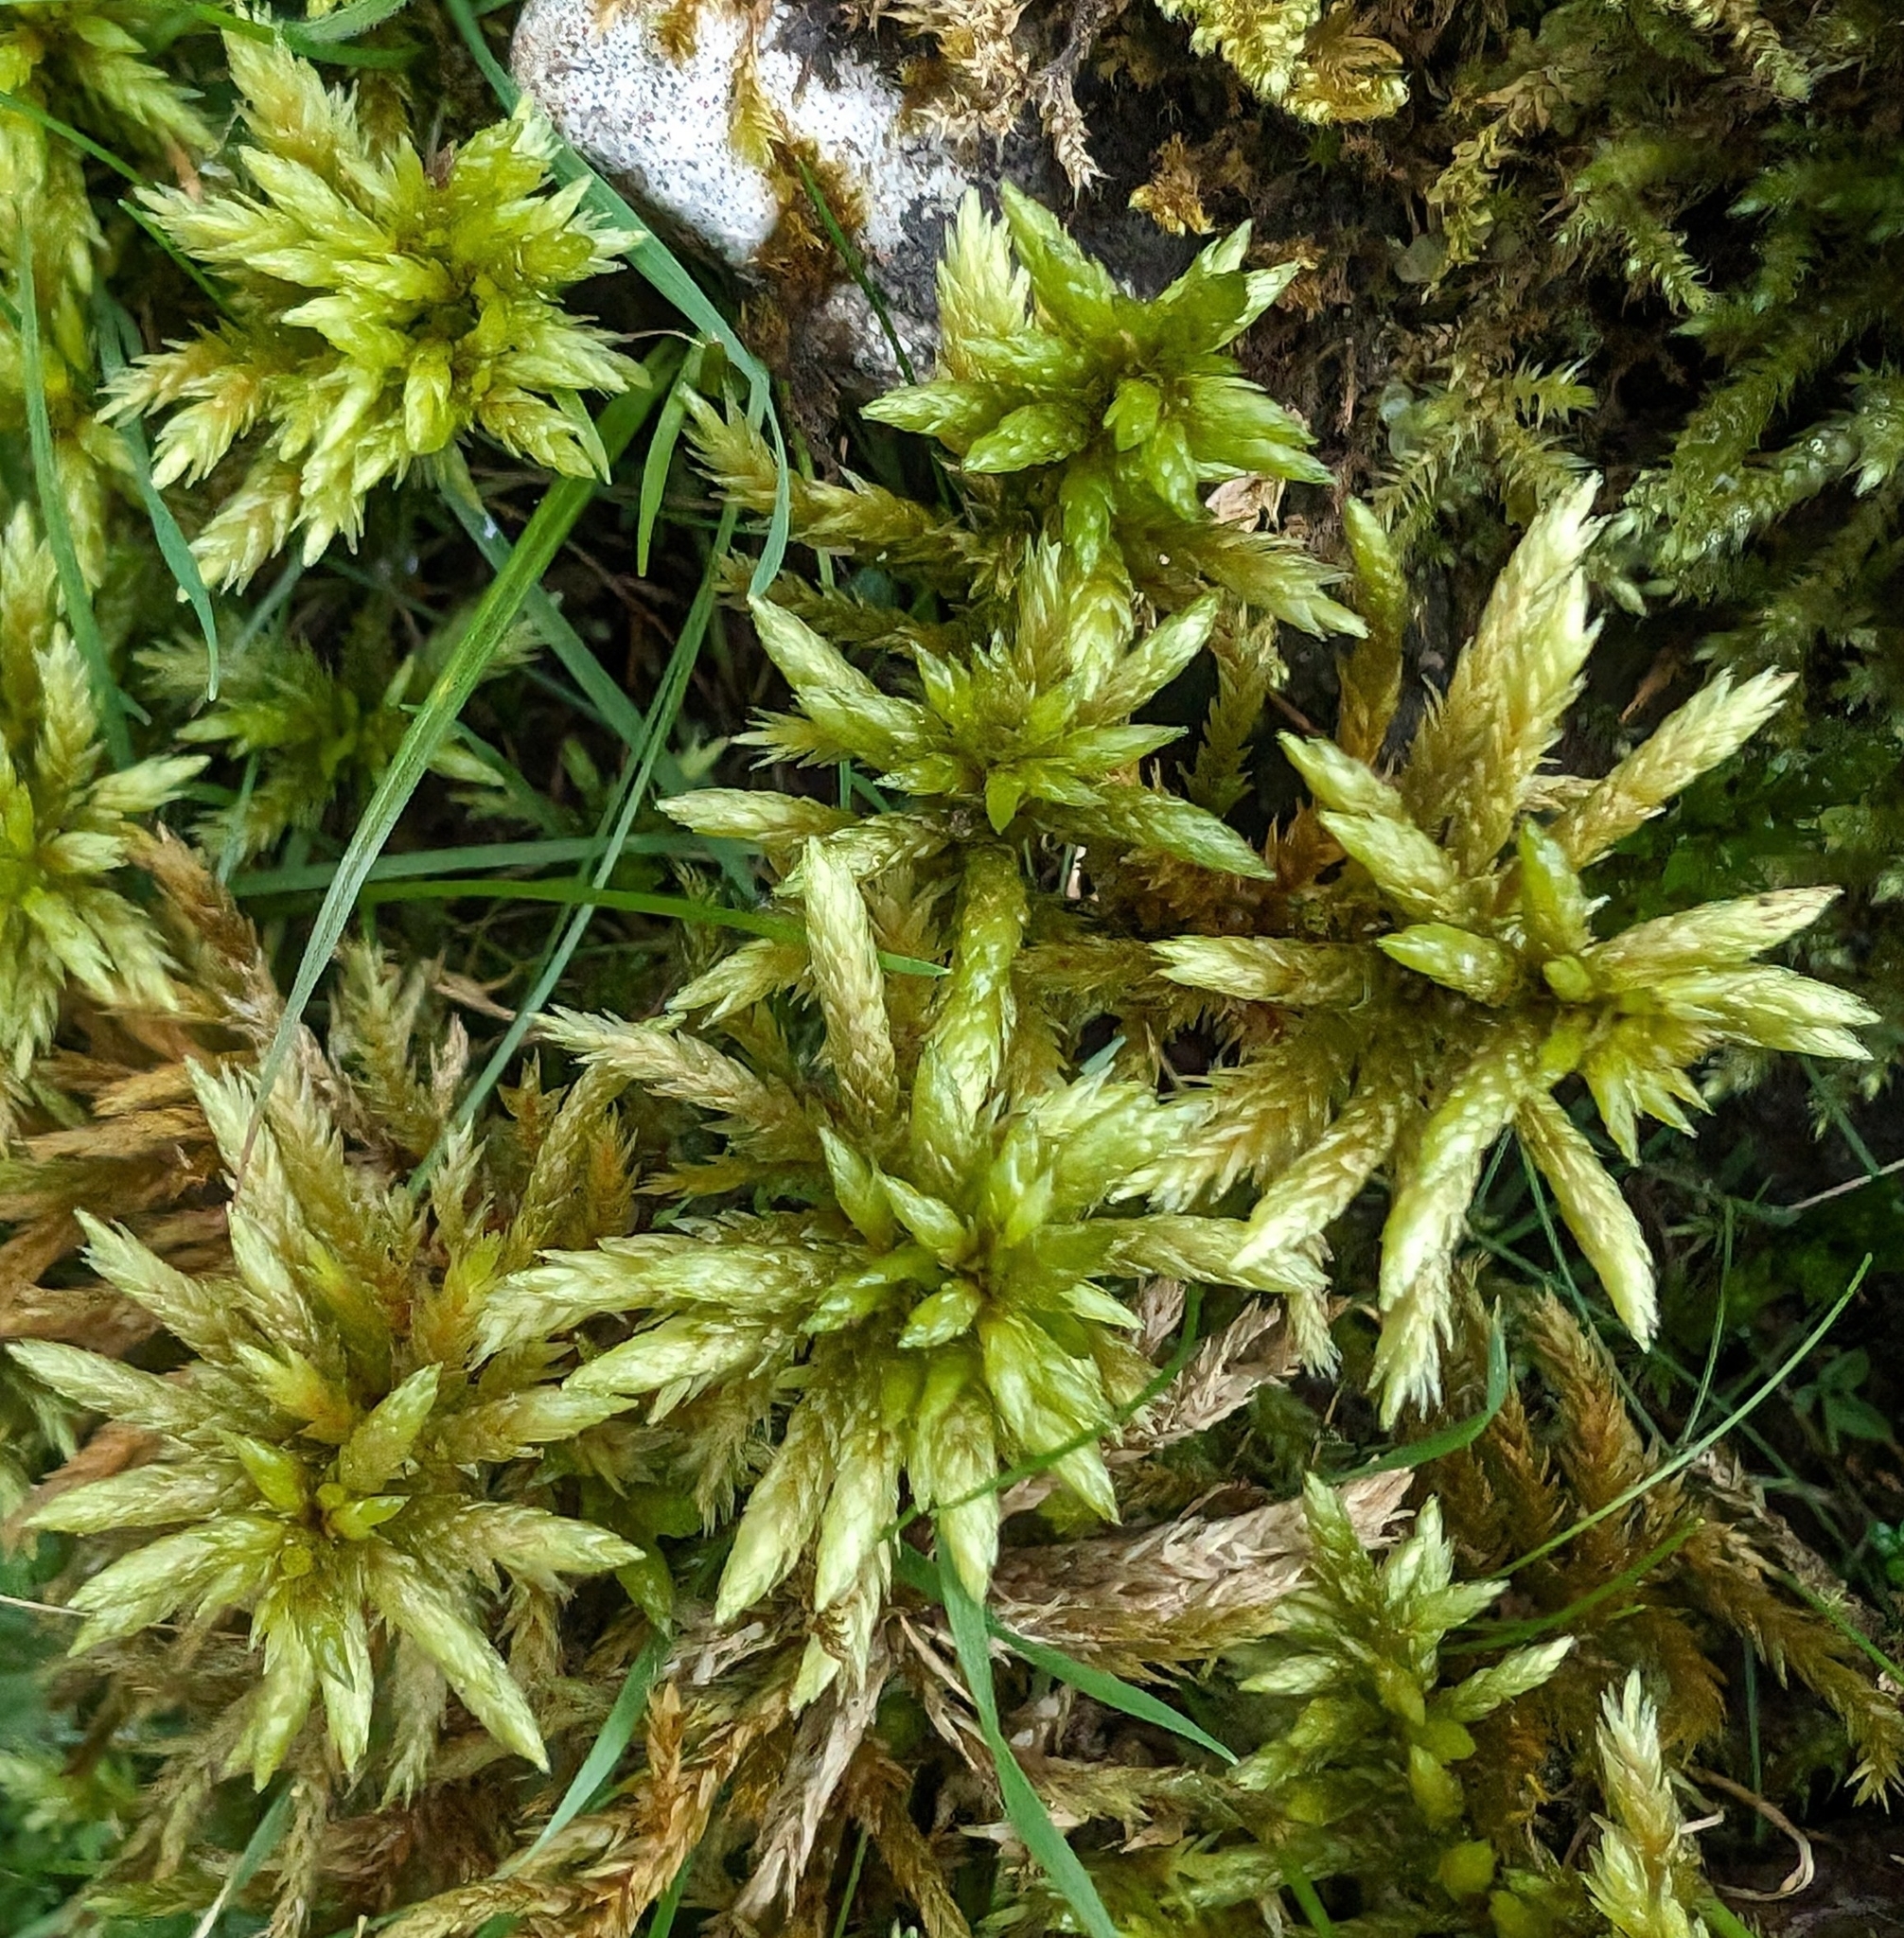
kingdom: Plantae
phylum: Bryophyta
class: Bryopsida
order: Hypnales
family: Climaciaceae
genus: Climacium
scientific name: Climacium dendroides
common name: Northern tree moss
